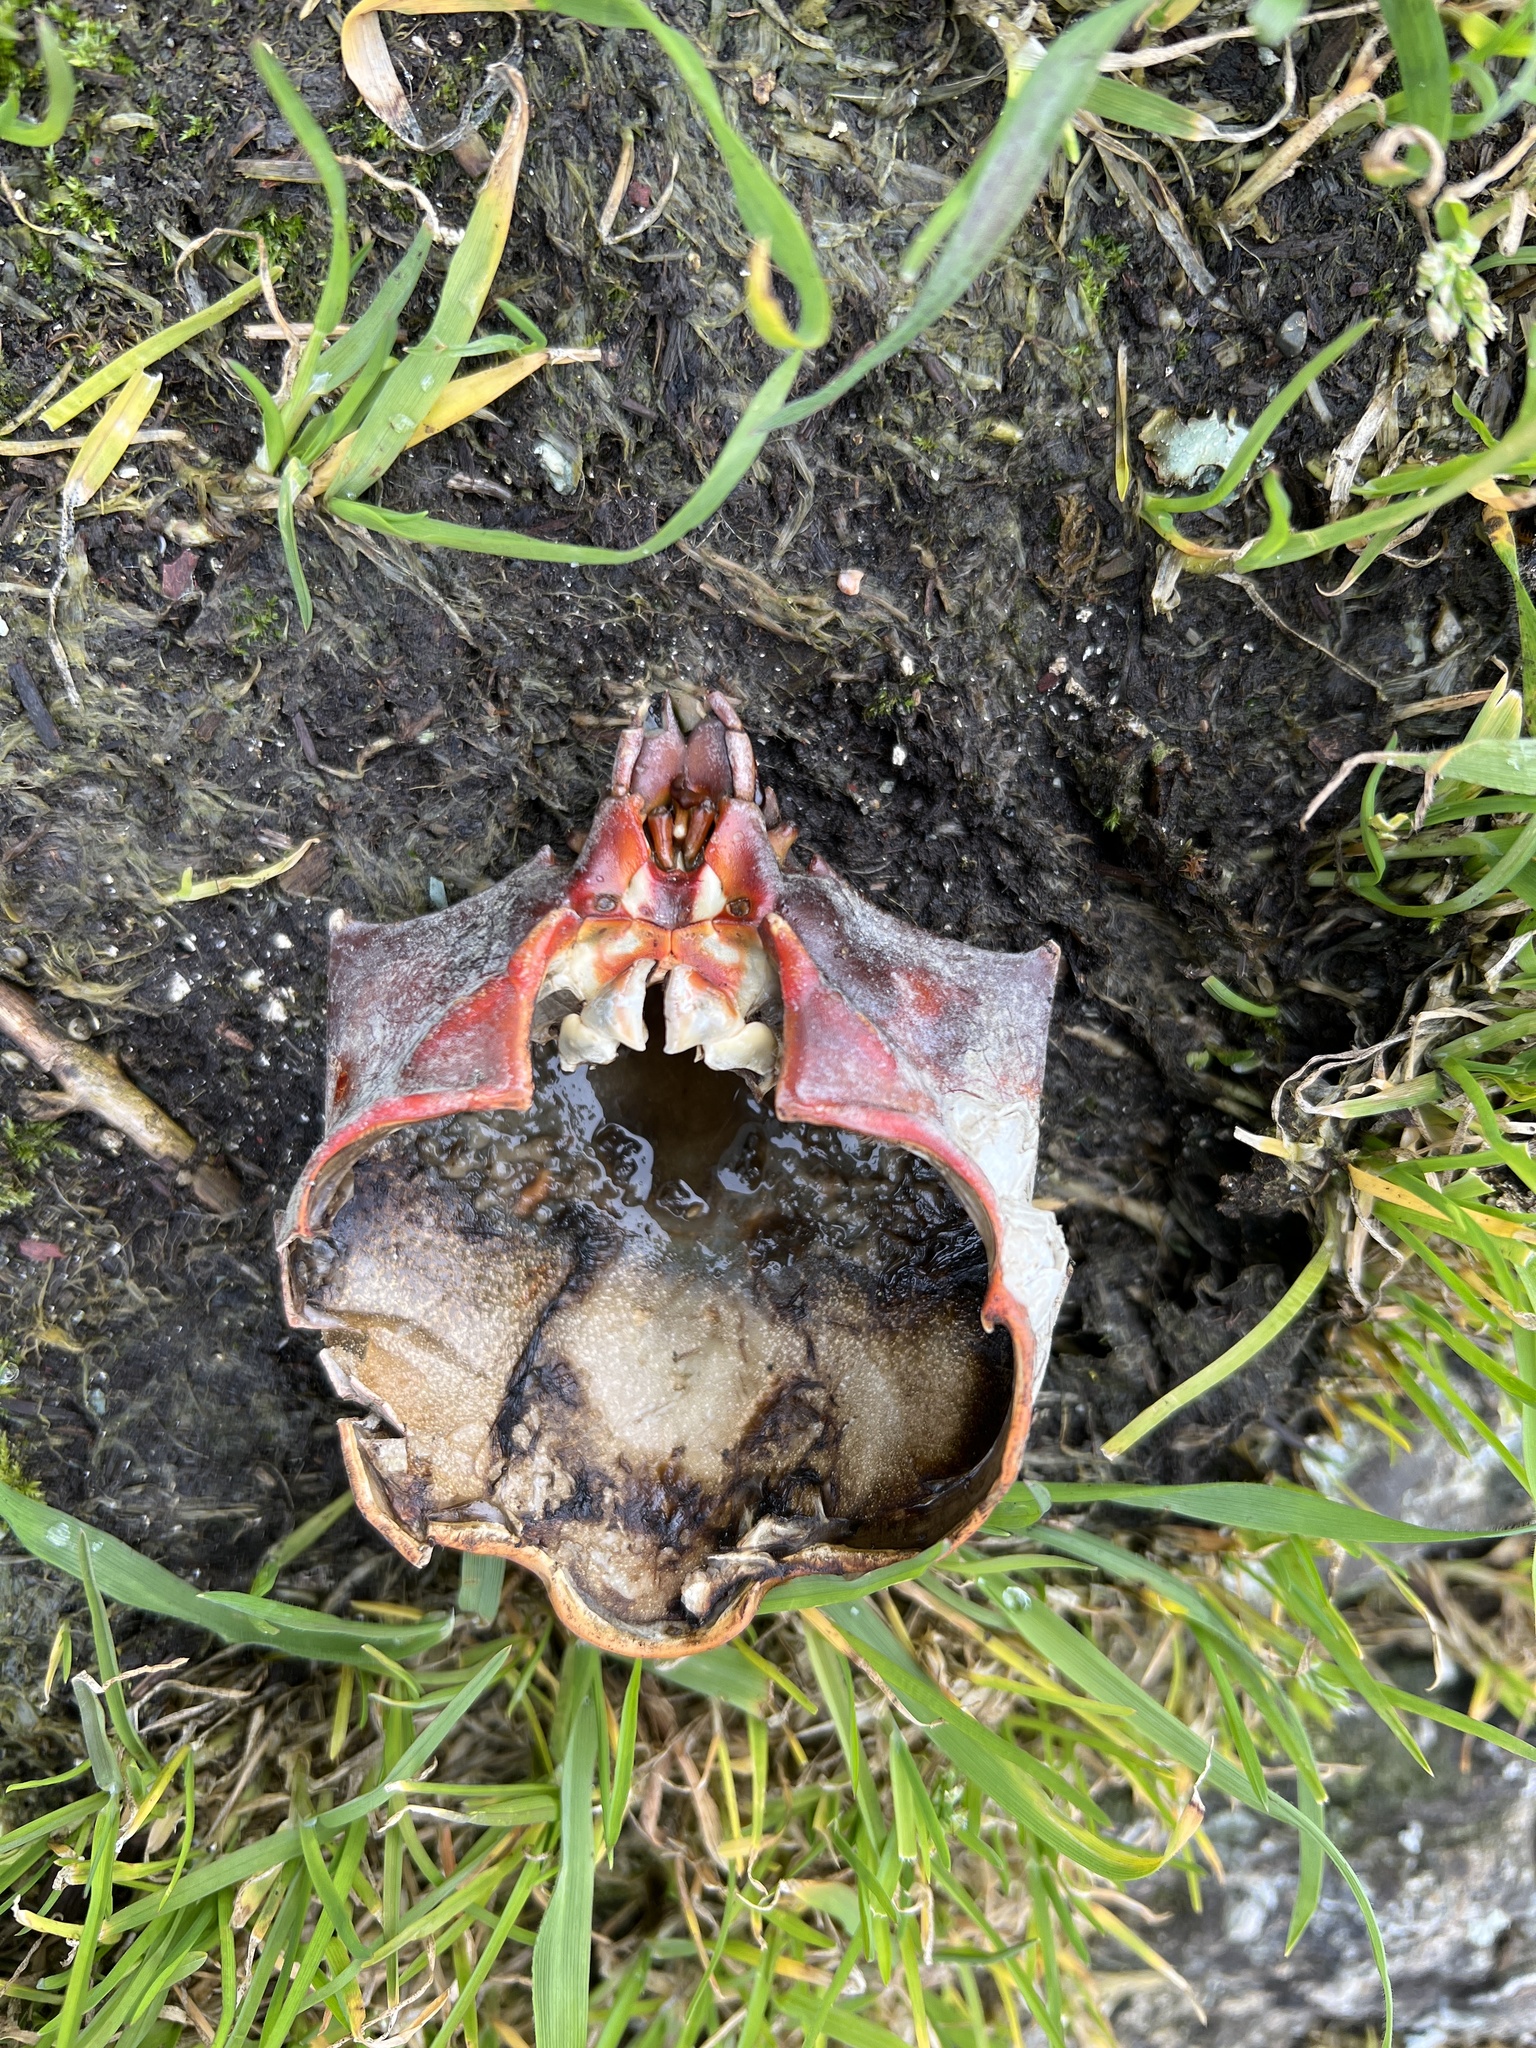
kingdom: Animalia
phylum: Arthropoda
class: Malacostraca
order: Decapoda
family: Epialtidae
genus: Pugettia
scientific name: Pugettia producta
